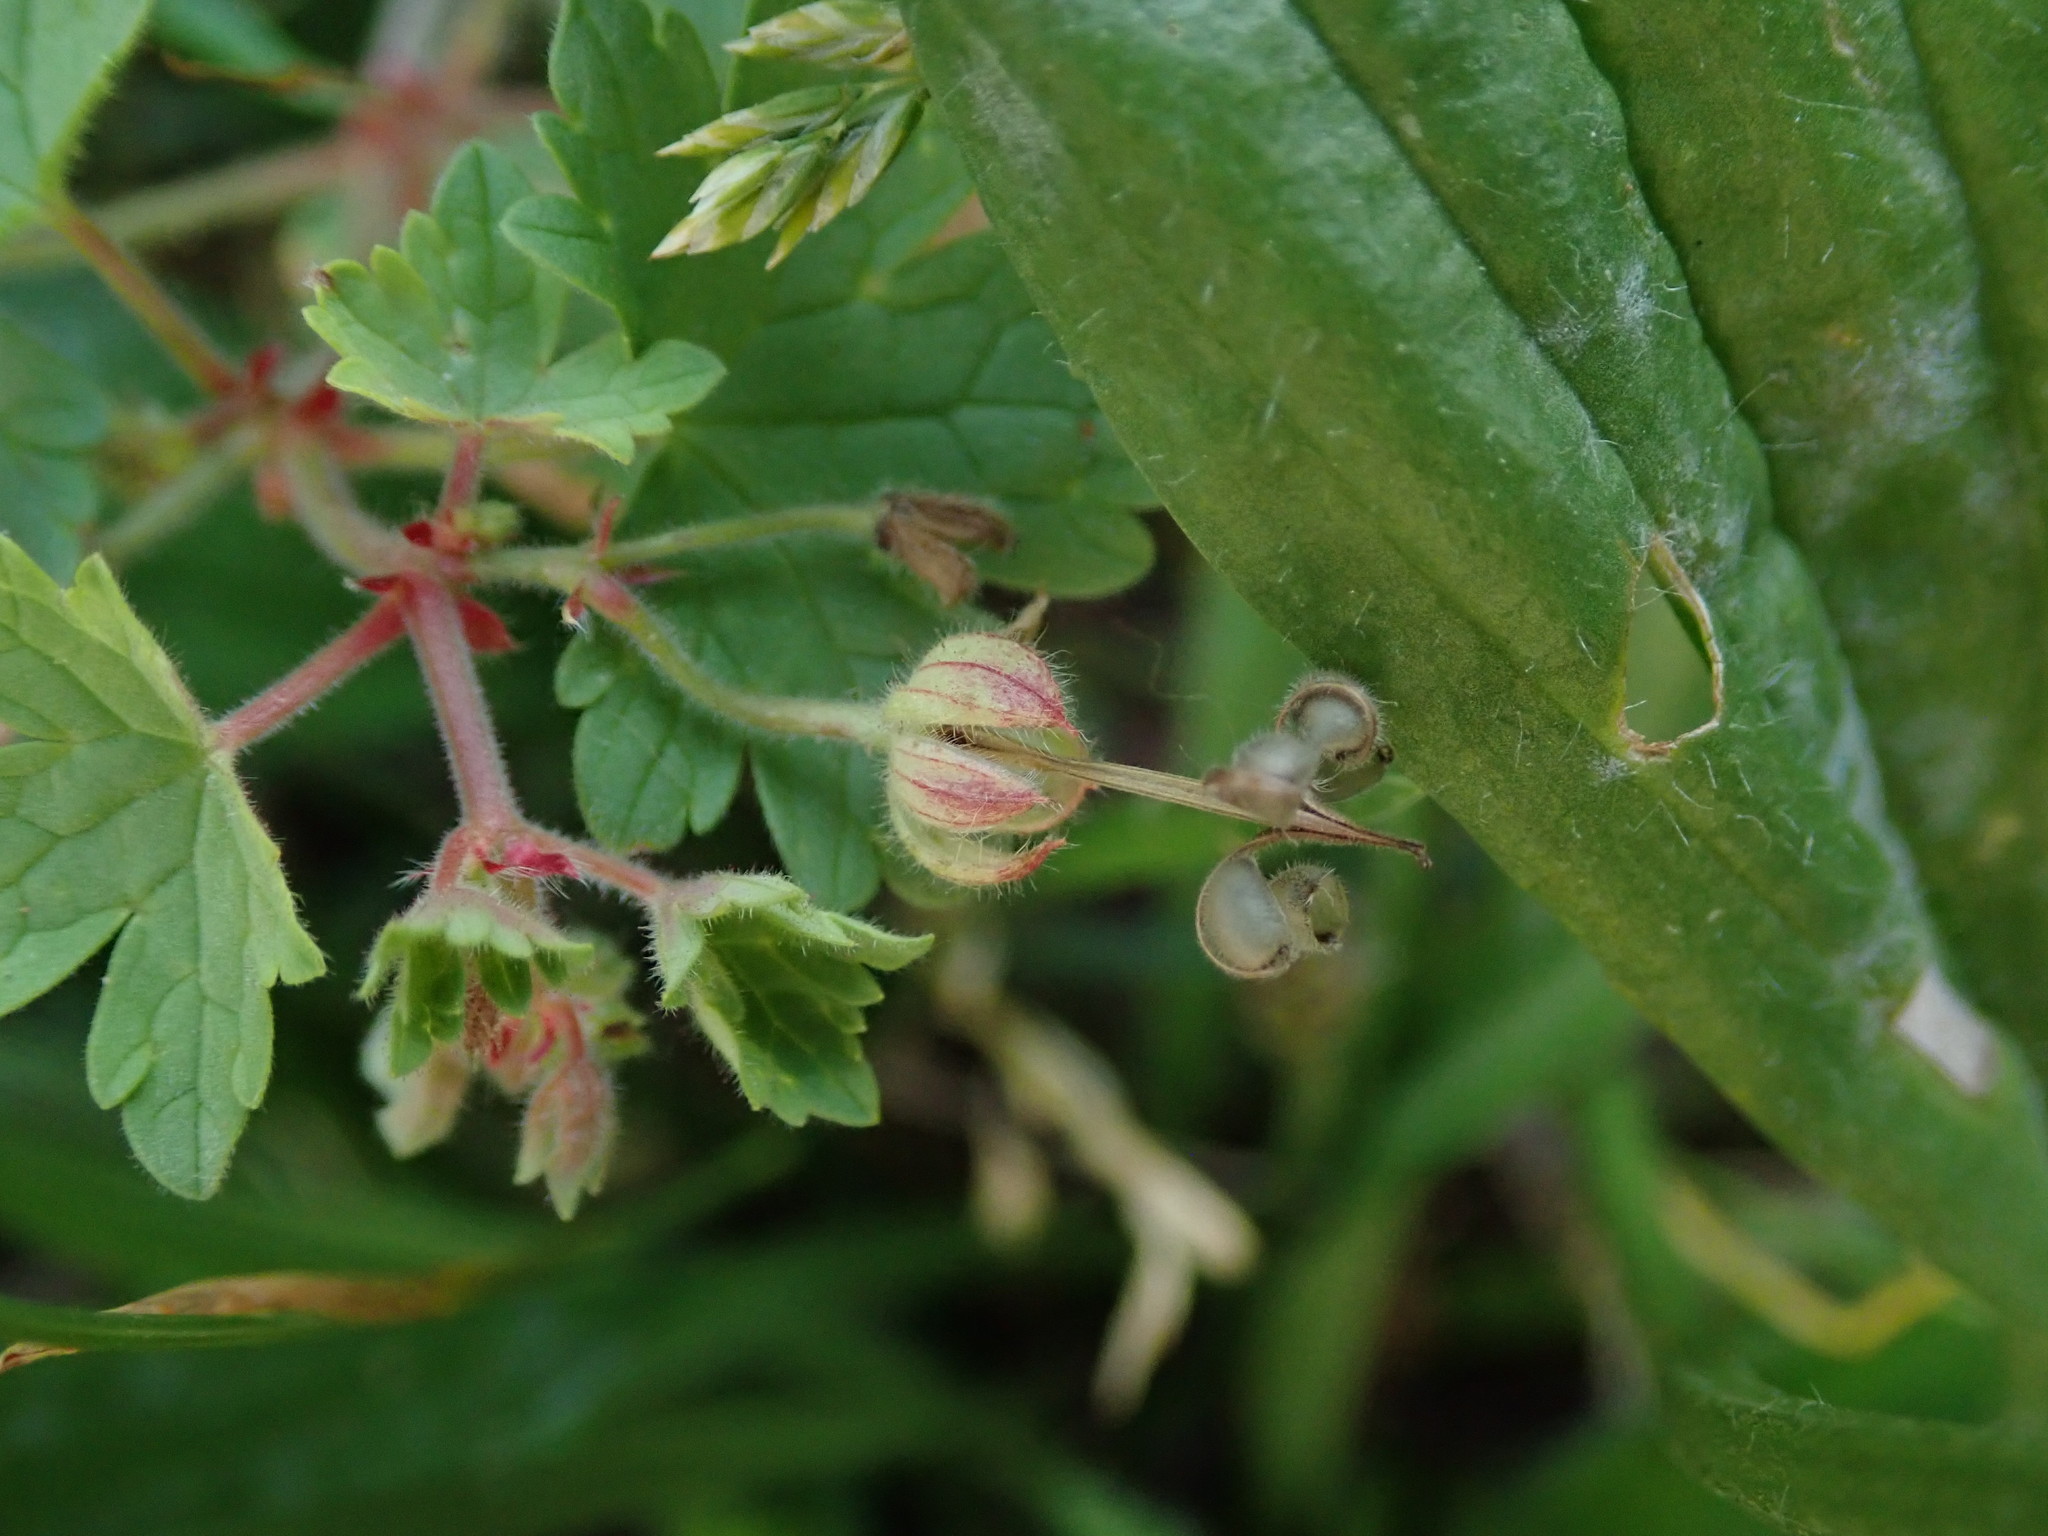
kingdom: Plantae
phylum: Tracheophyta
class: Magnoliopsida
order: Geraniales
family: Geraniaceae
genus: Geranium
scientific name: Geranium rotundifolium
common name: Round-leaved crane's-bill
